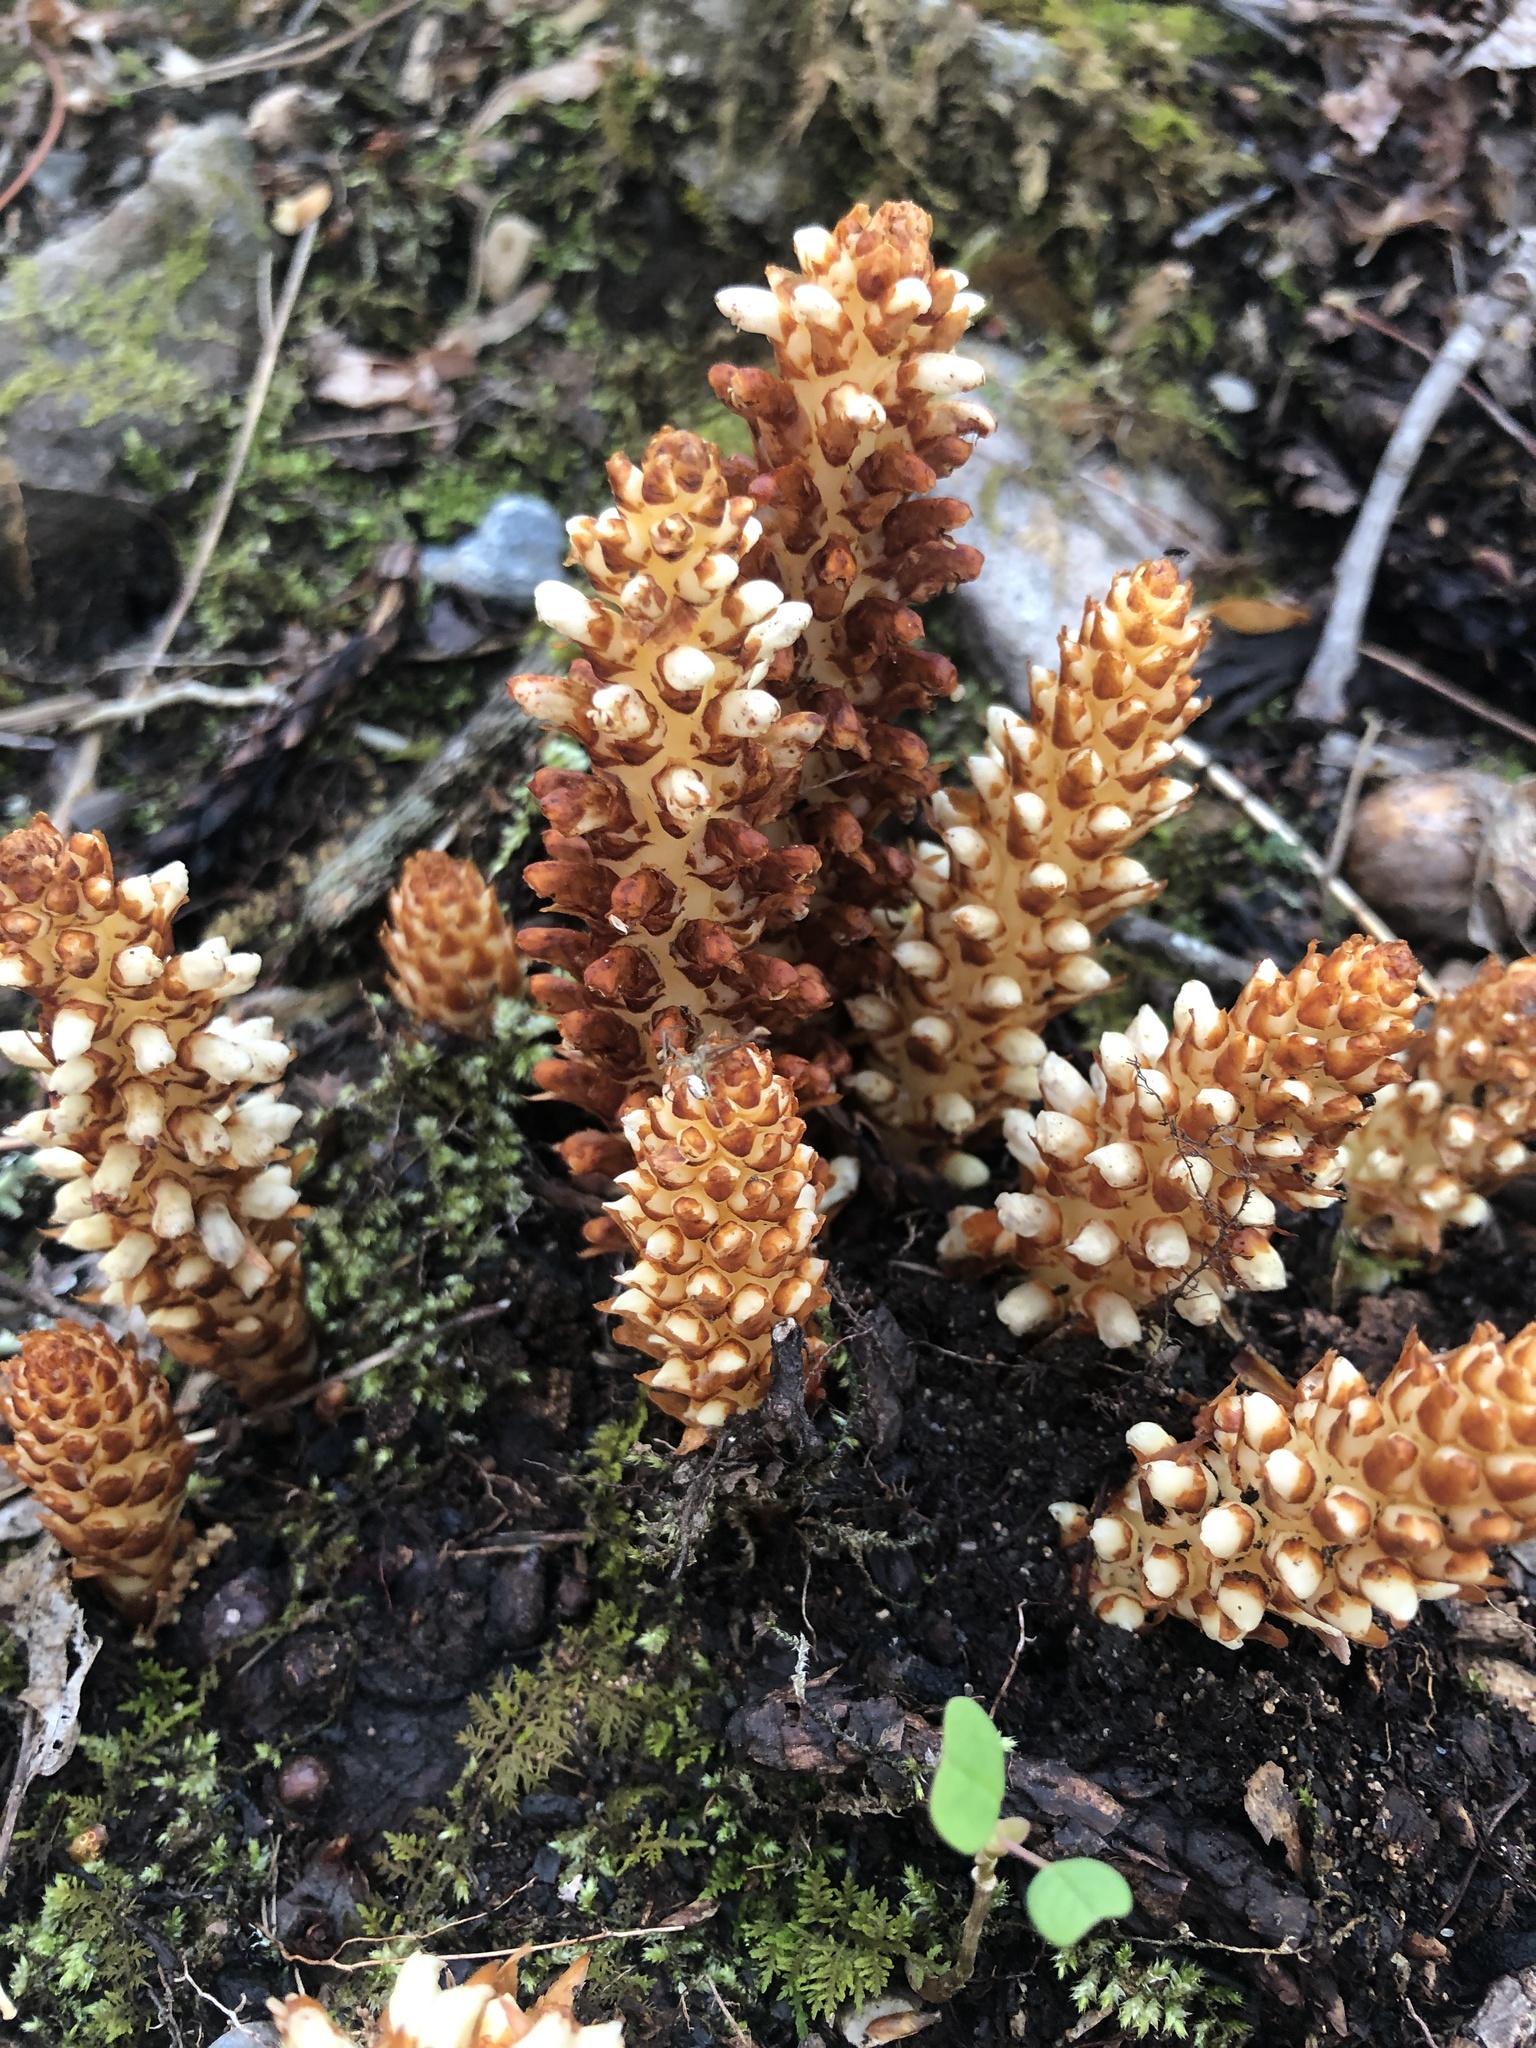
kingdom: Plantae
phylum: Tracheophyta
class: Magnoliopsida
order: Lamiales
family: Orobanchaceae
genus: Conopholis
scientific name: Conopholis americana
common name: American cancer-root
